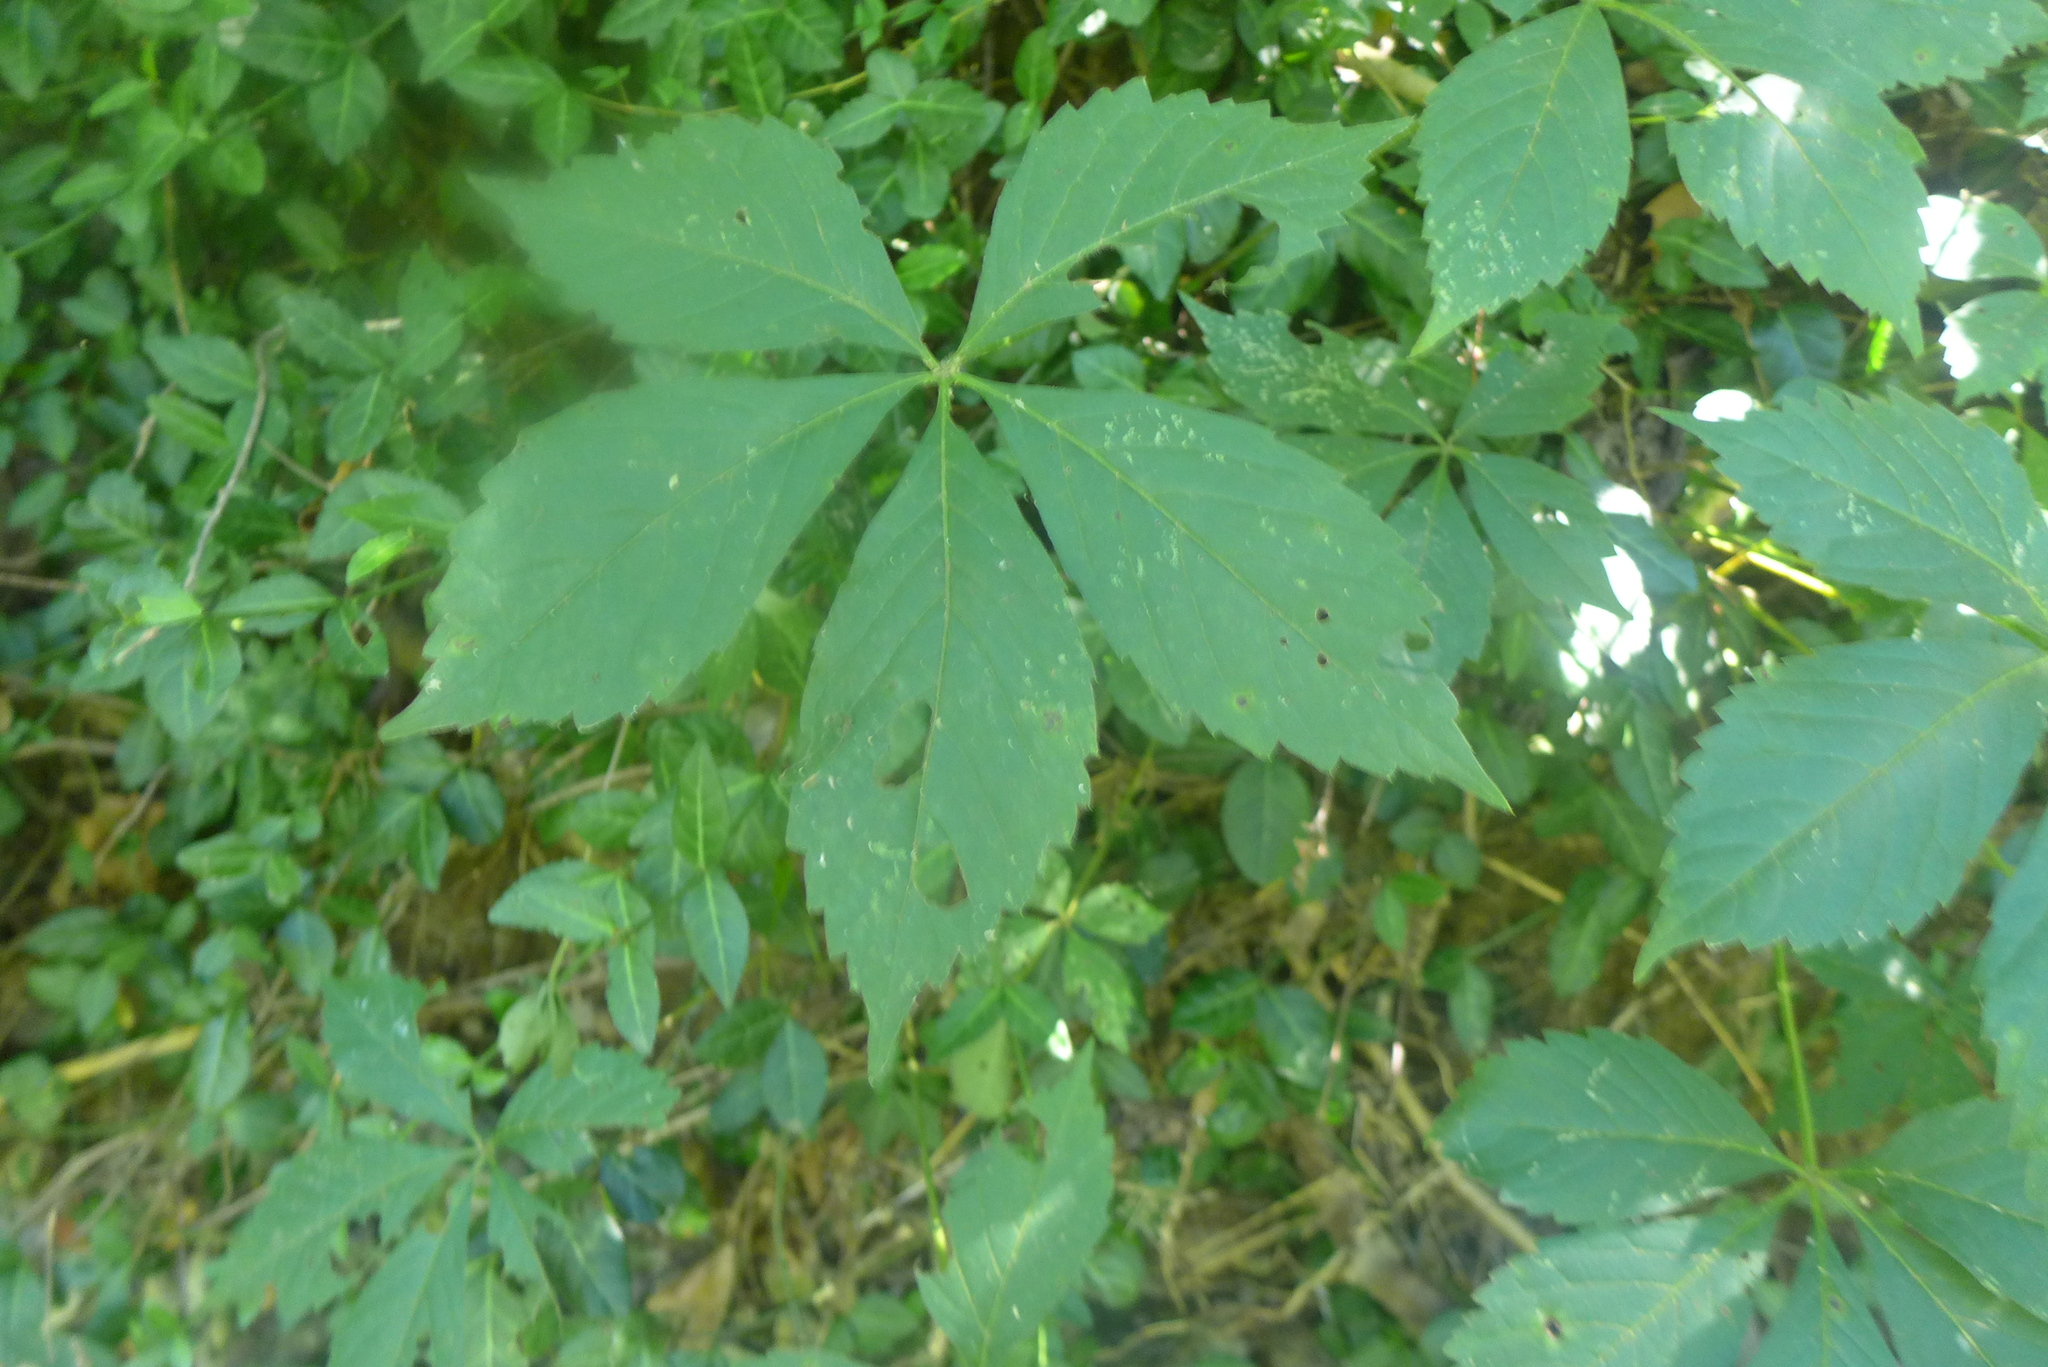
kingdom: Plantae
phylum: Tracheophyta
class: Magnoliopsida
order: Vitales
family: Vitaceae
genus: Parthenocissus
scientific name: Parthenocissus quinquefolia
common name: Virginia-creeper
